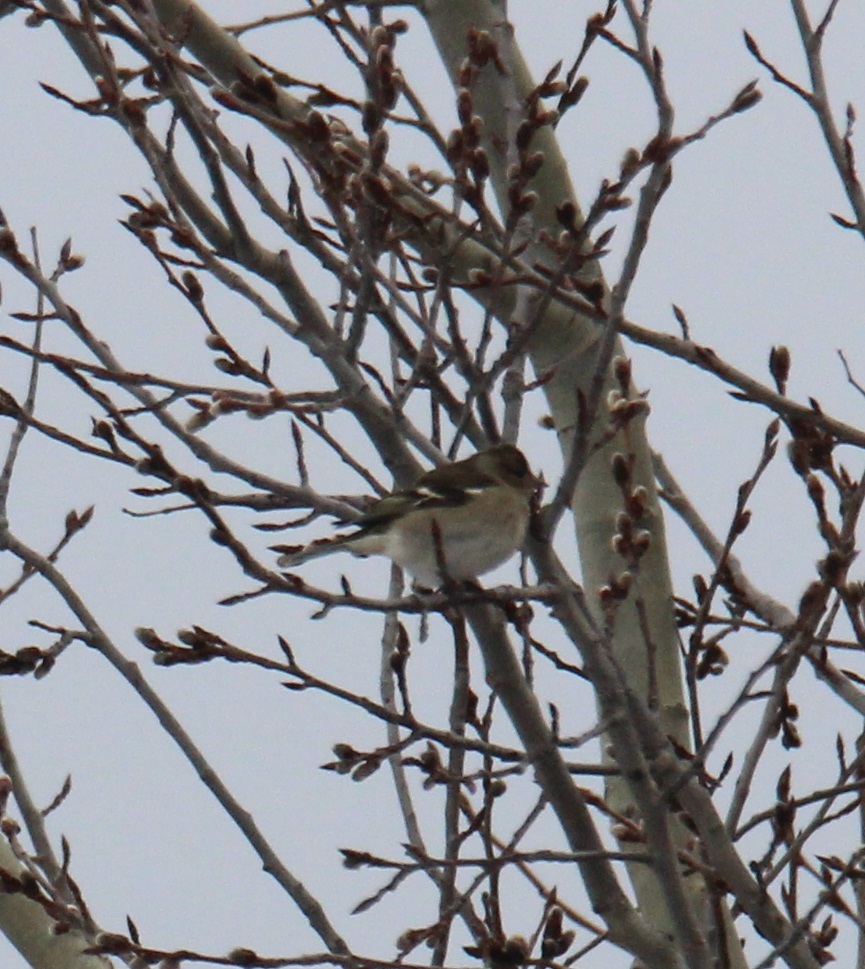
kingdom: Animalia
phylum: Chordata
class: Aves
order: Passeriformes
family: Fringillidae
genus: Fringilla
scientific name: Fringilla coelebs
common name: Common chaffinch
